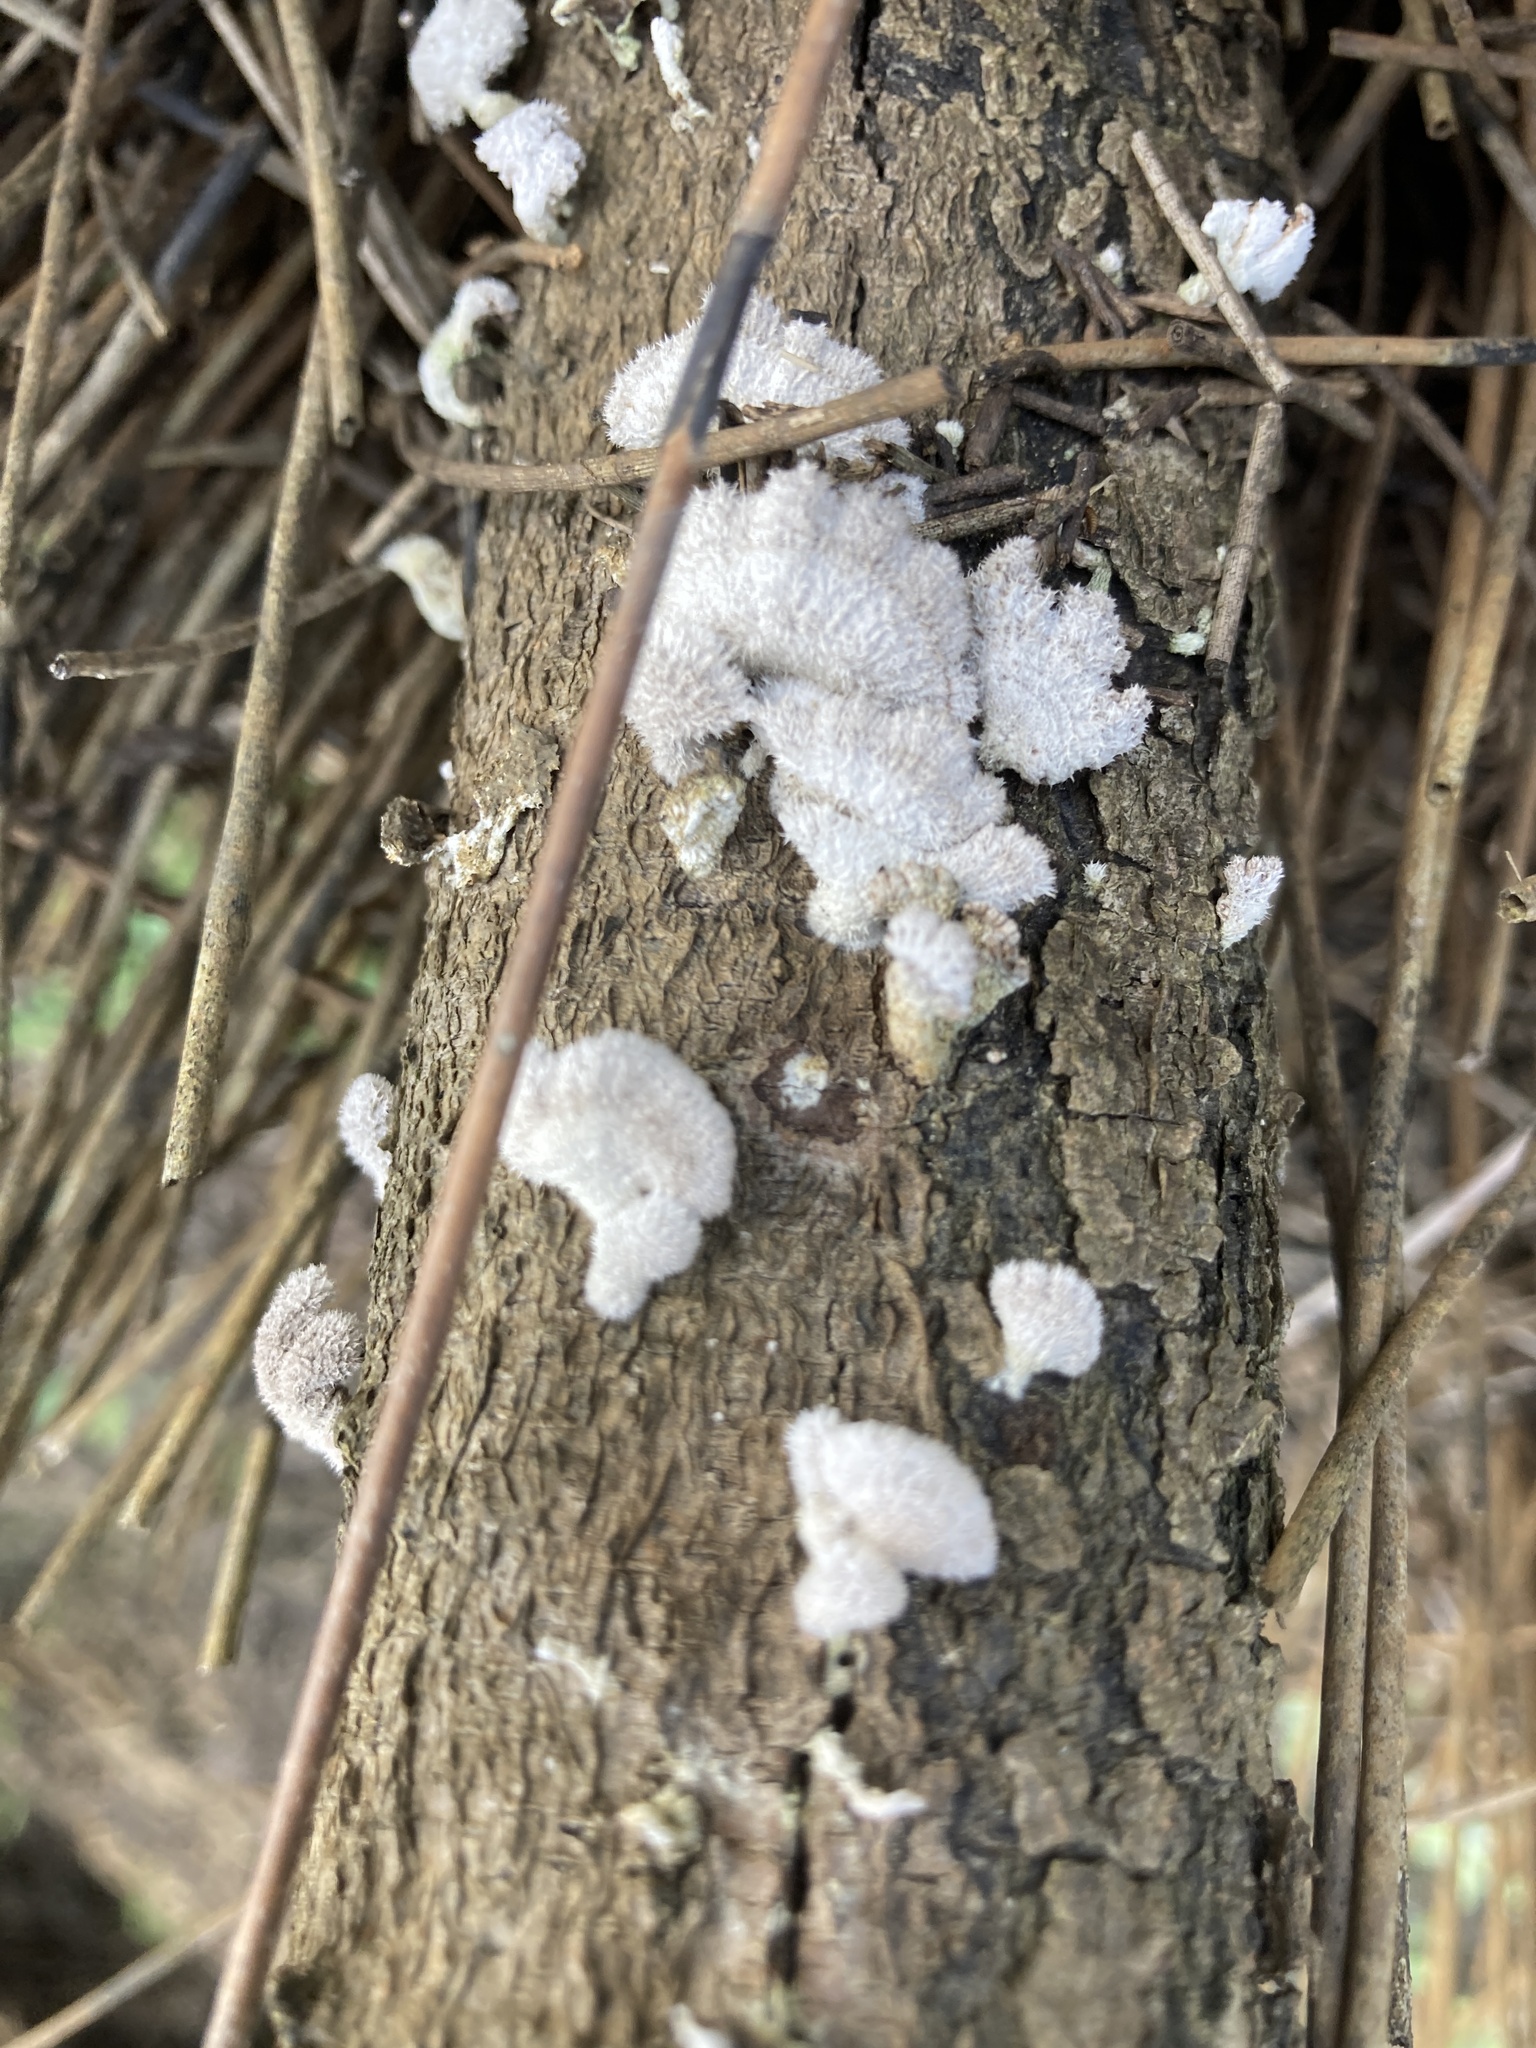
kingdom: Fungi
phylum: Basidiomycota
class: Agaricomycetes
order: Agaricales
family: Schizophyllaceae
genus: Schizophyllum
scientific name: Schizophyllum commune
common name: Common porecrust
